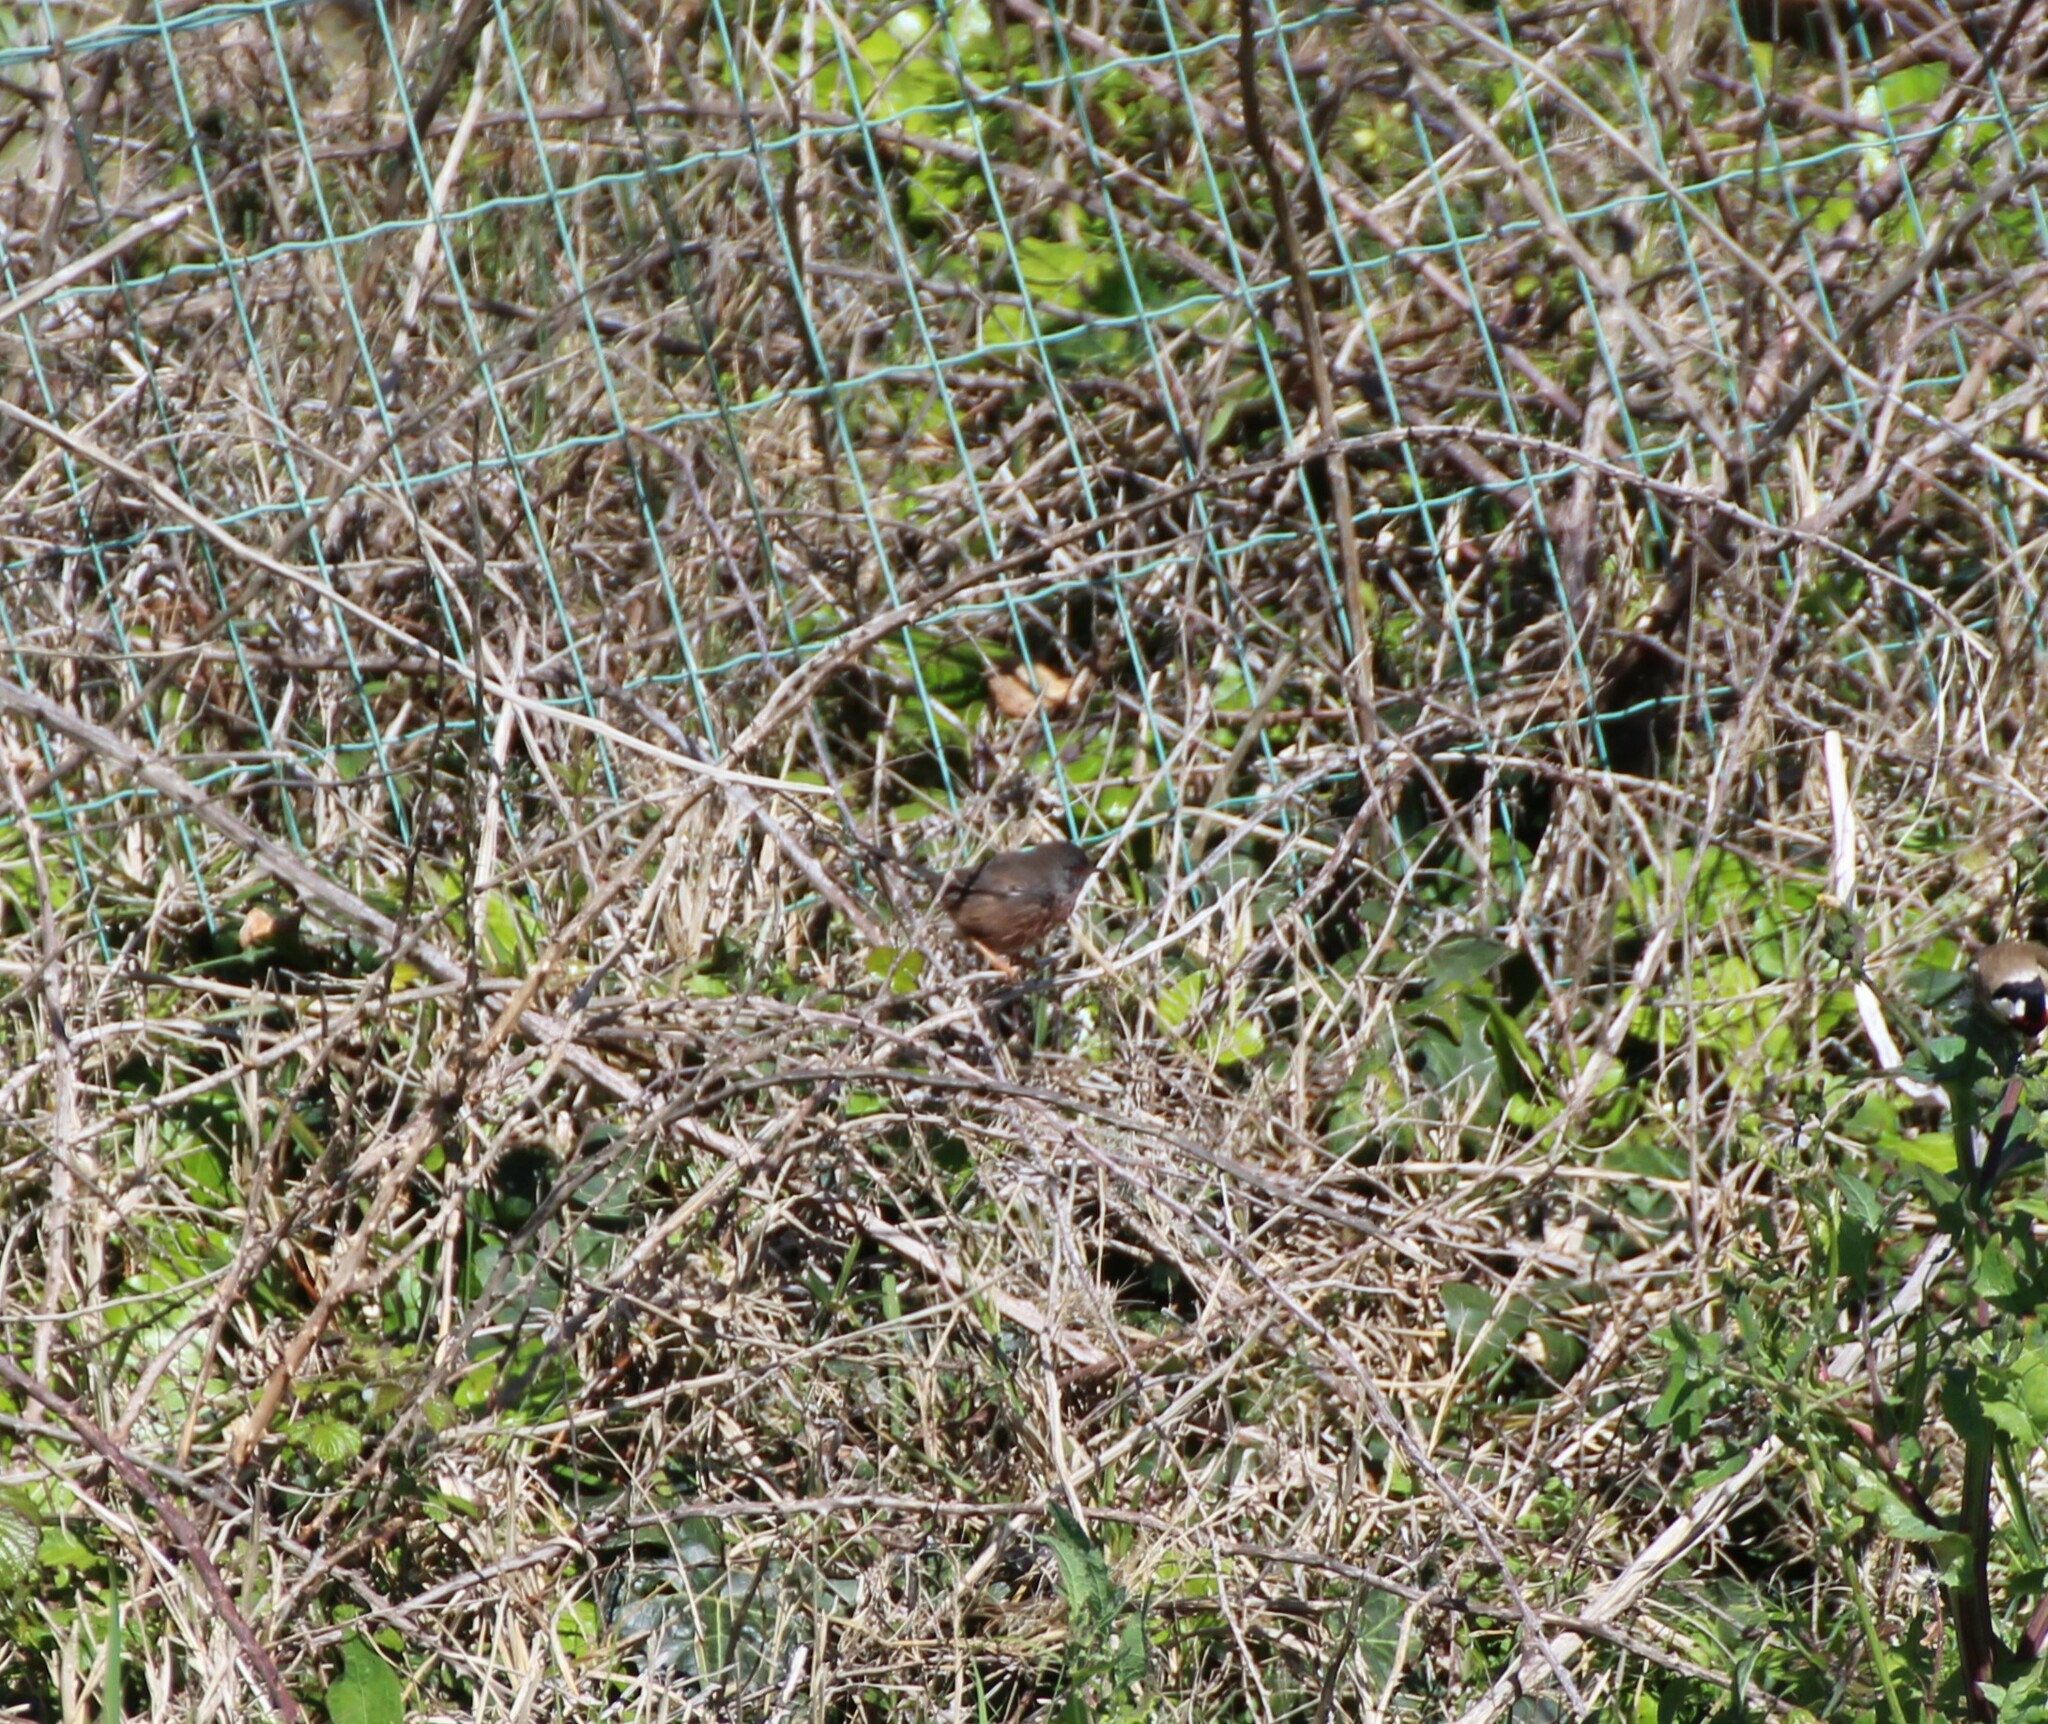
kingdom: Animalia
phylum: Chordata
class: Aves
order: Passeriformes
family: Sylviidae
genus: Sylvia
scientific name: Sylvia undata
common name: Dartford warbler
